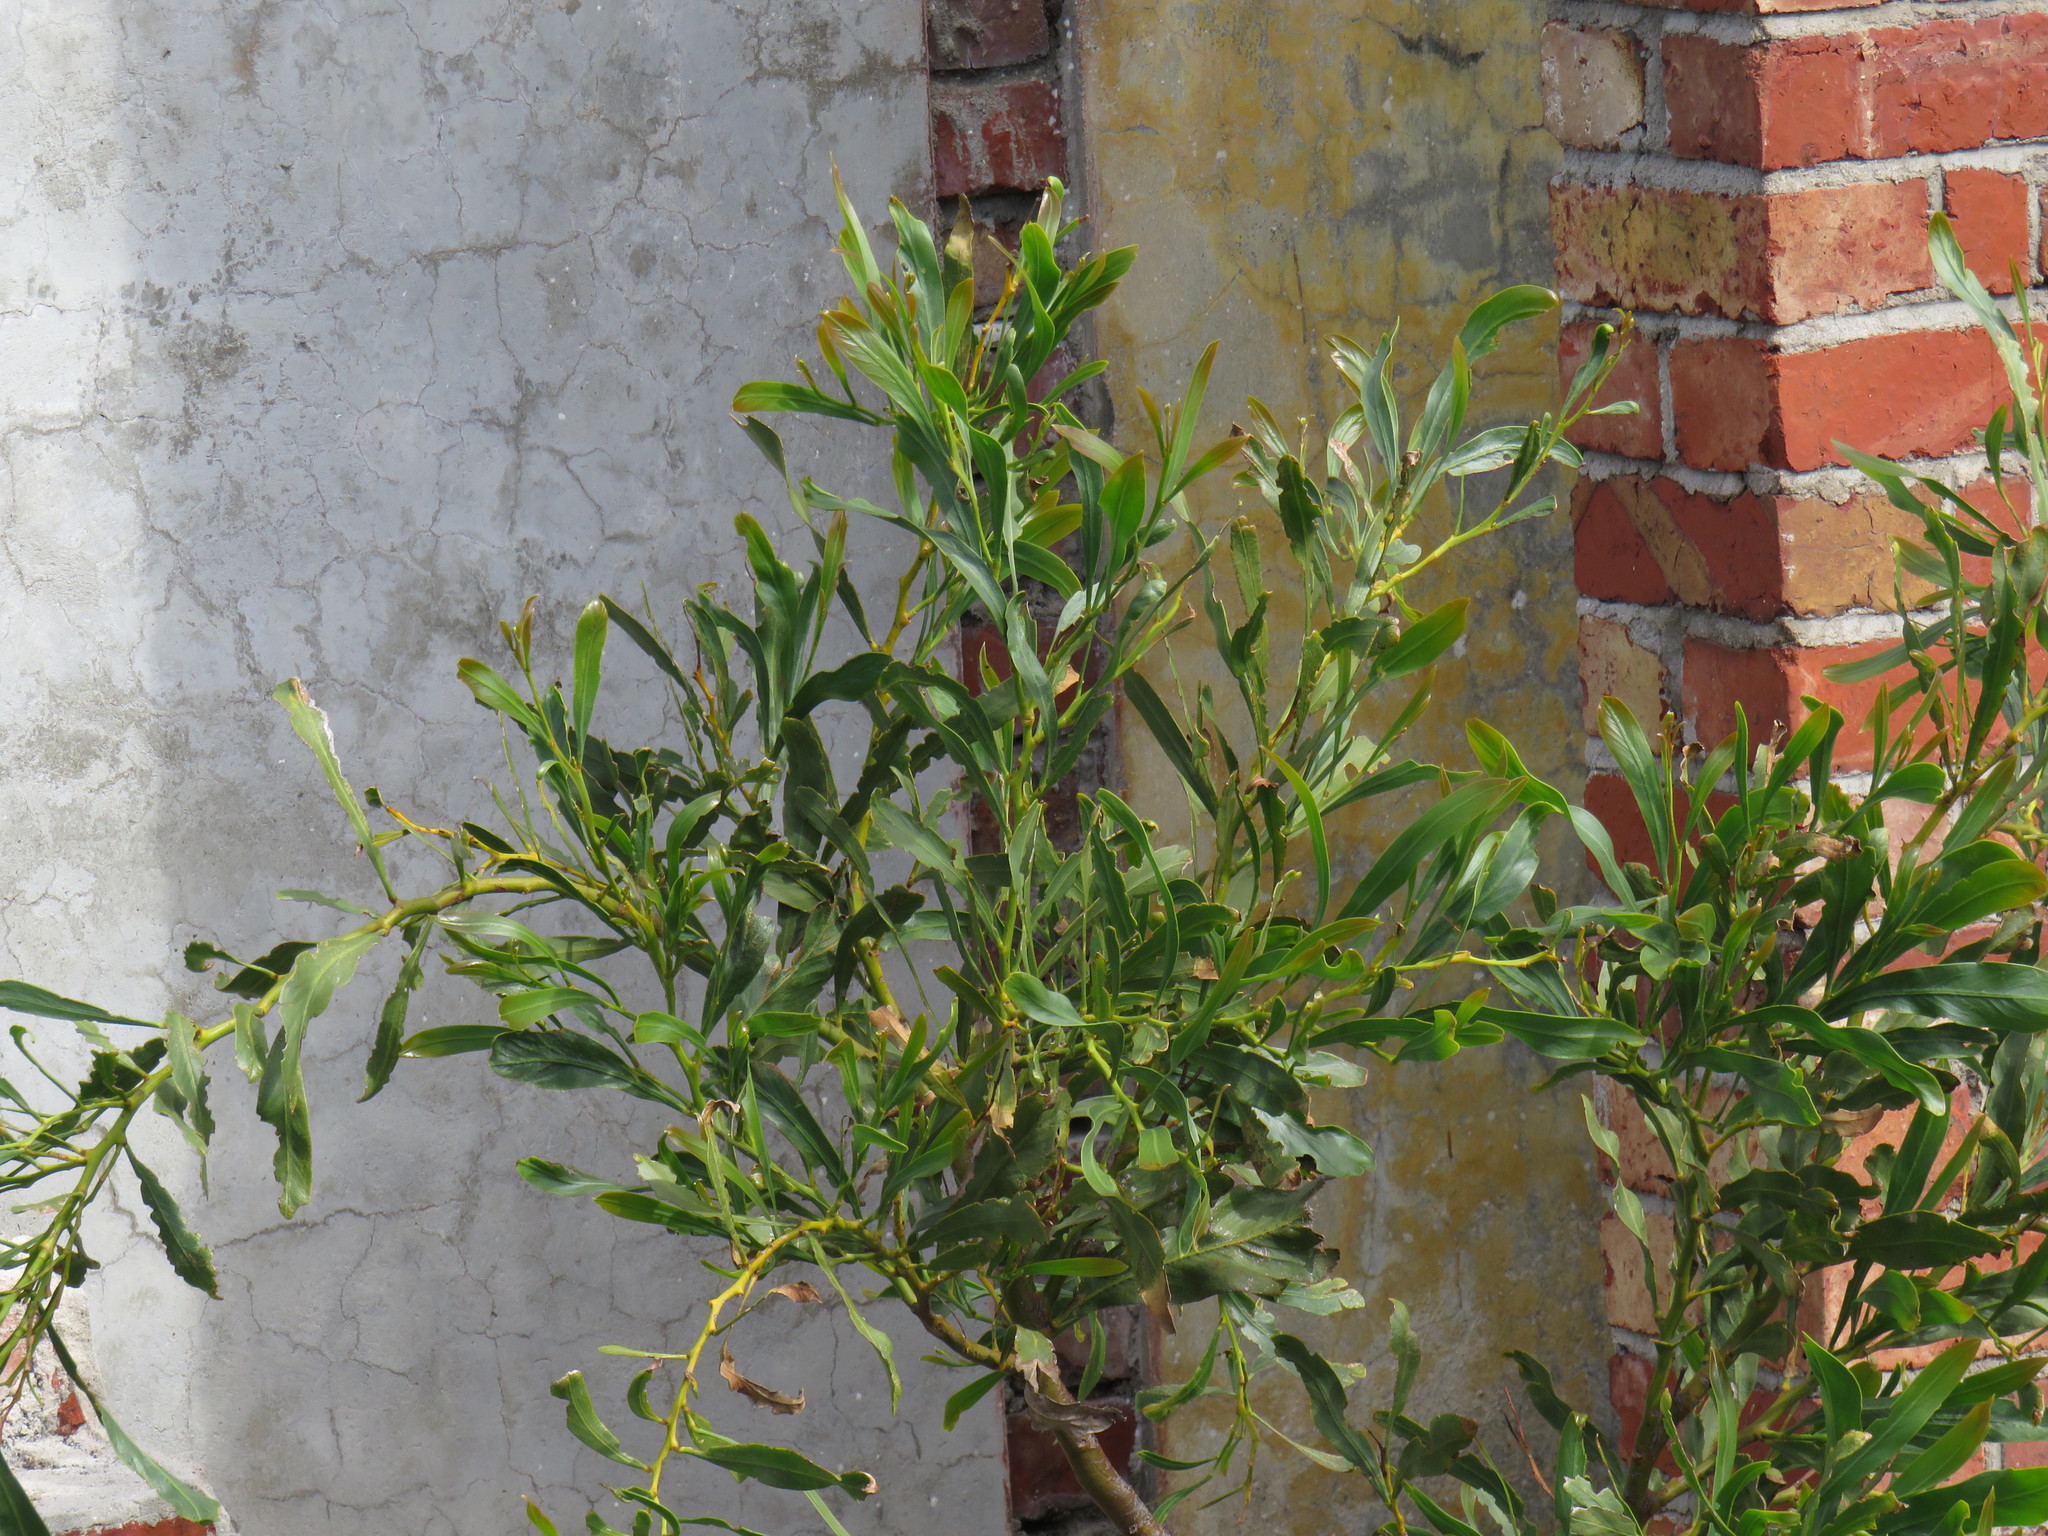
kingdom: Plantae
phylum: Tracheophyta
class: Magnoliopsida
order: Fabales
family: Fabaceae
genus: Acacia
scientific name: Acacia saligna
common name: Orange wattle
